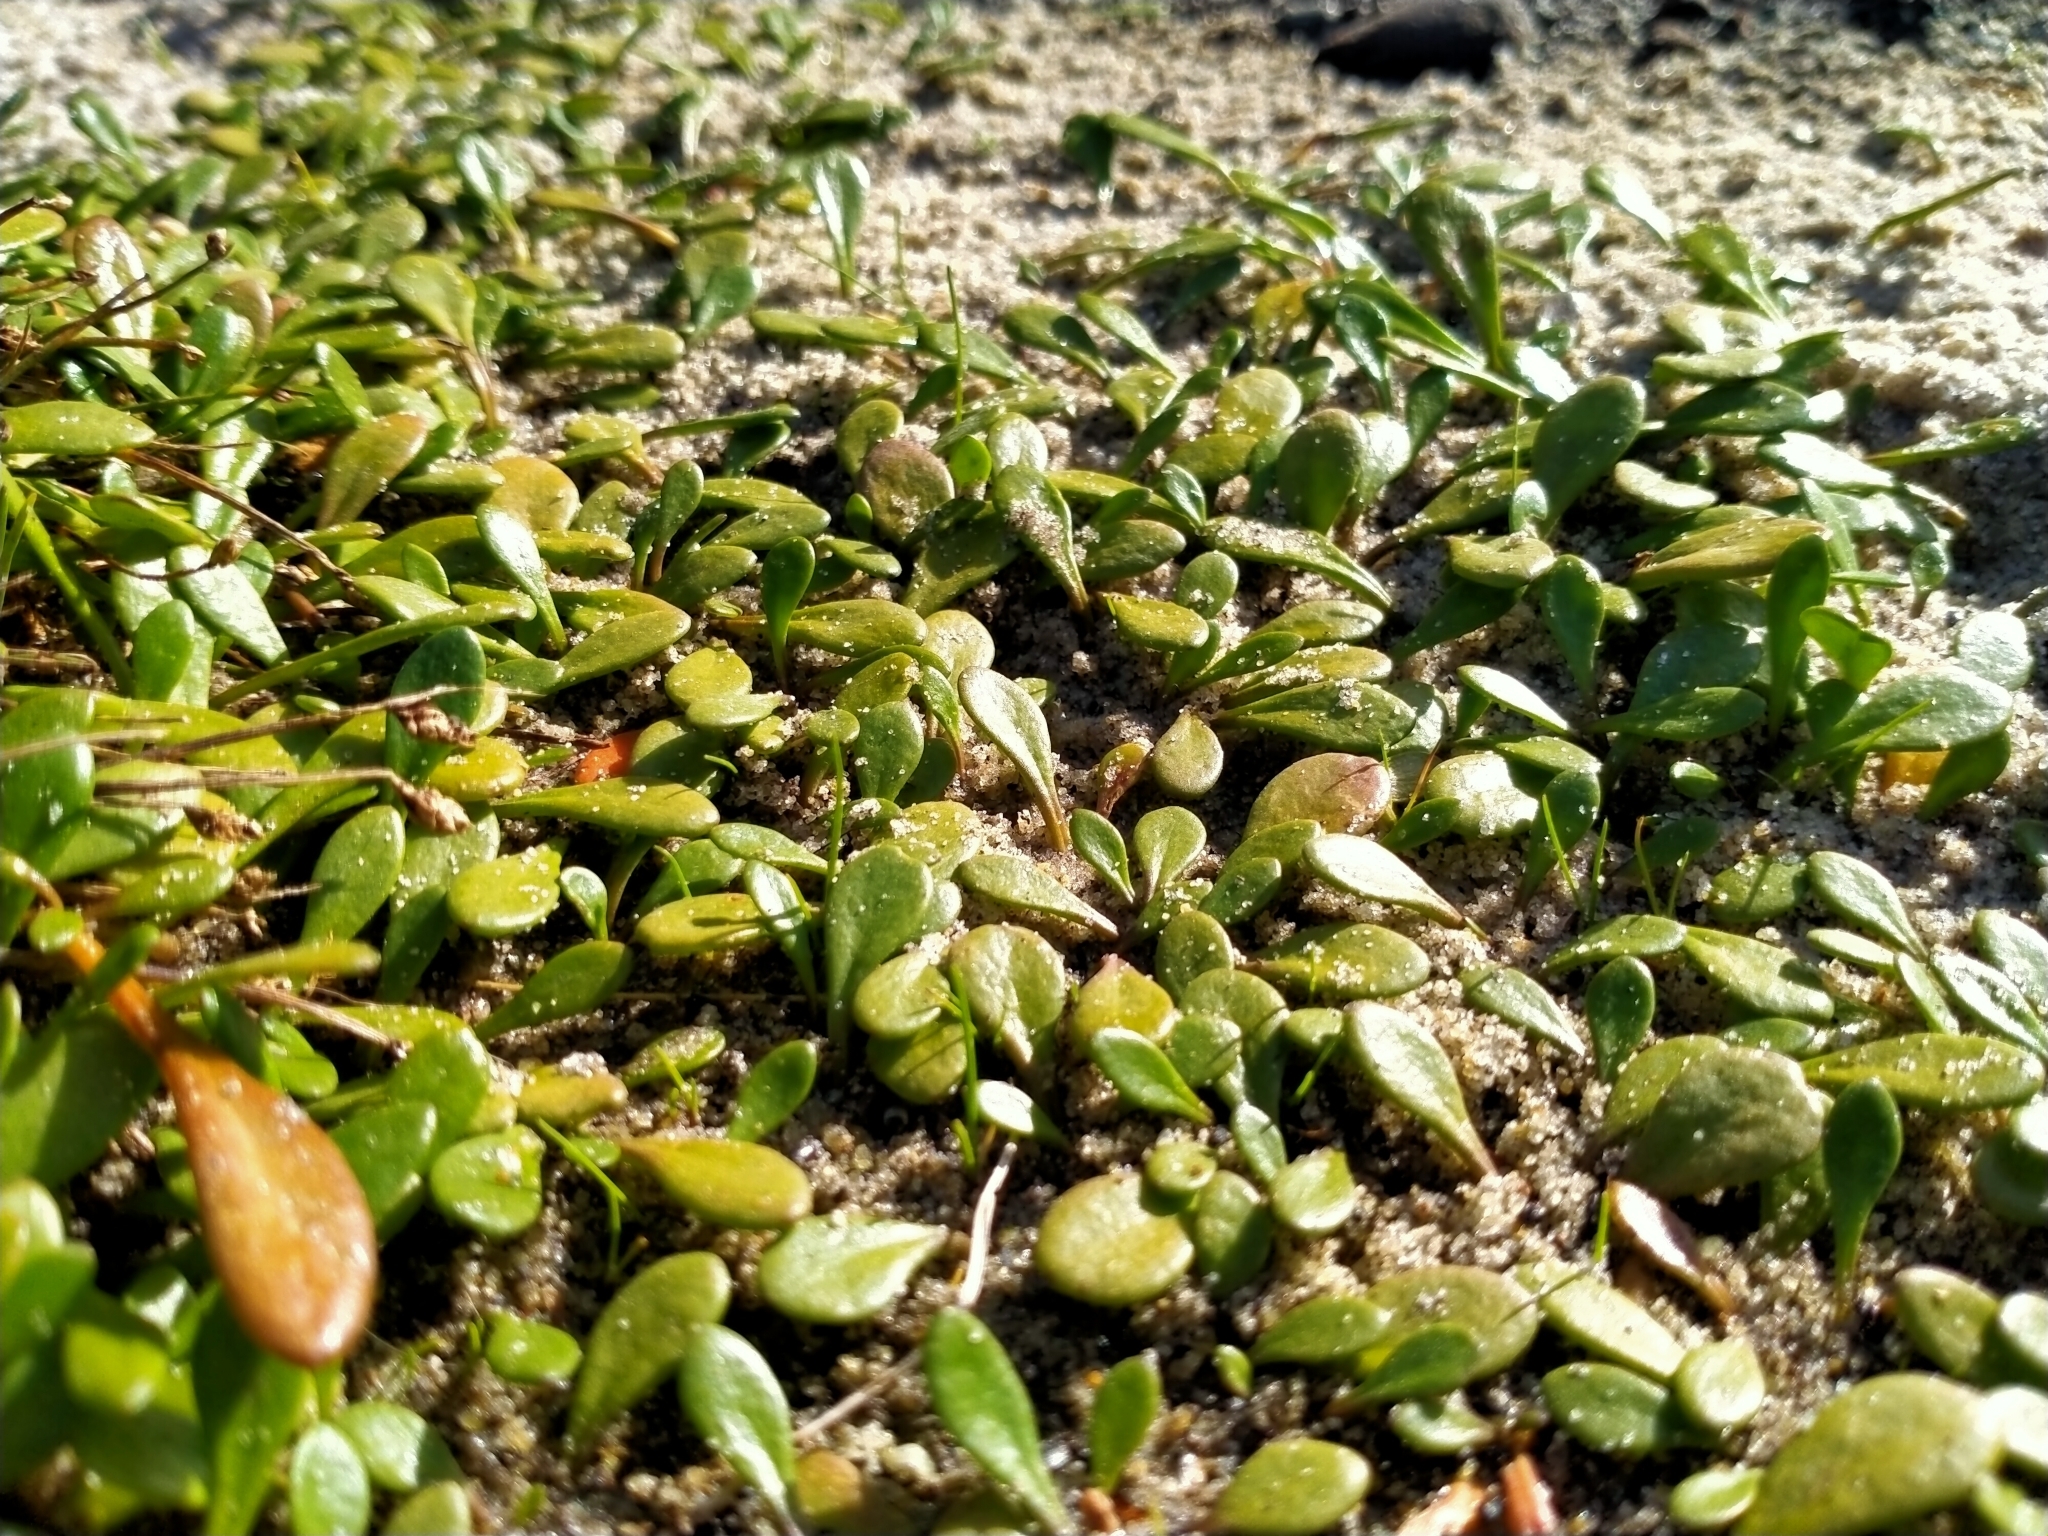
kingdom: Plantae
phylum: Tracheophyta
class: Magnoliopsida
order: Asterales
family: Goodeniaceae
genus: Goodenia
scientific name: Goodenia radicans
